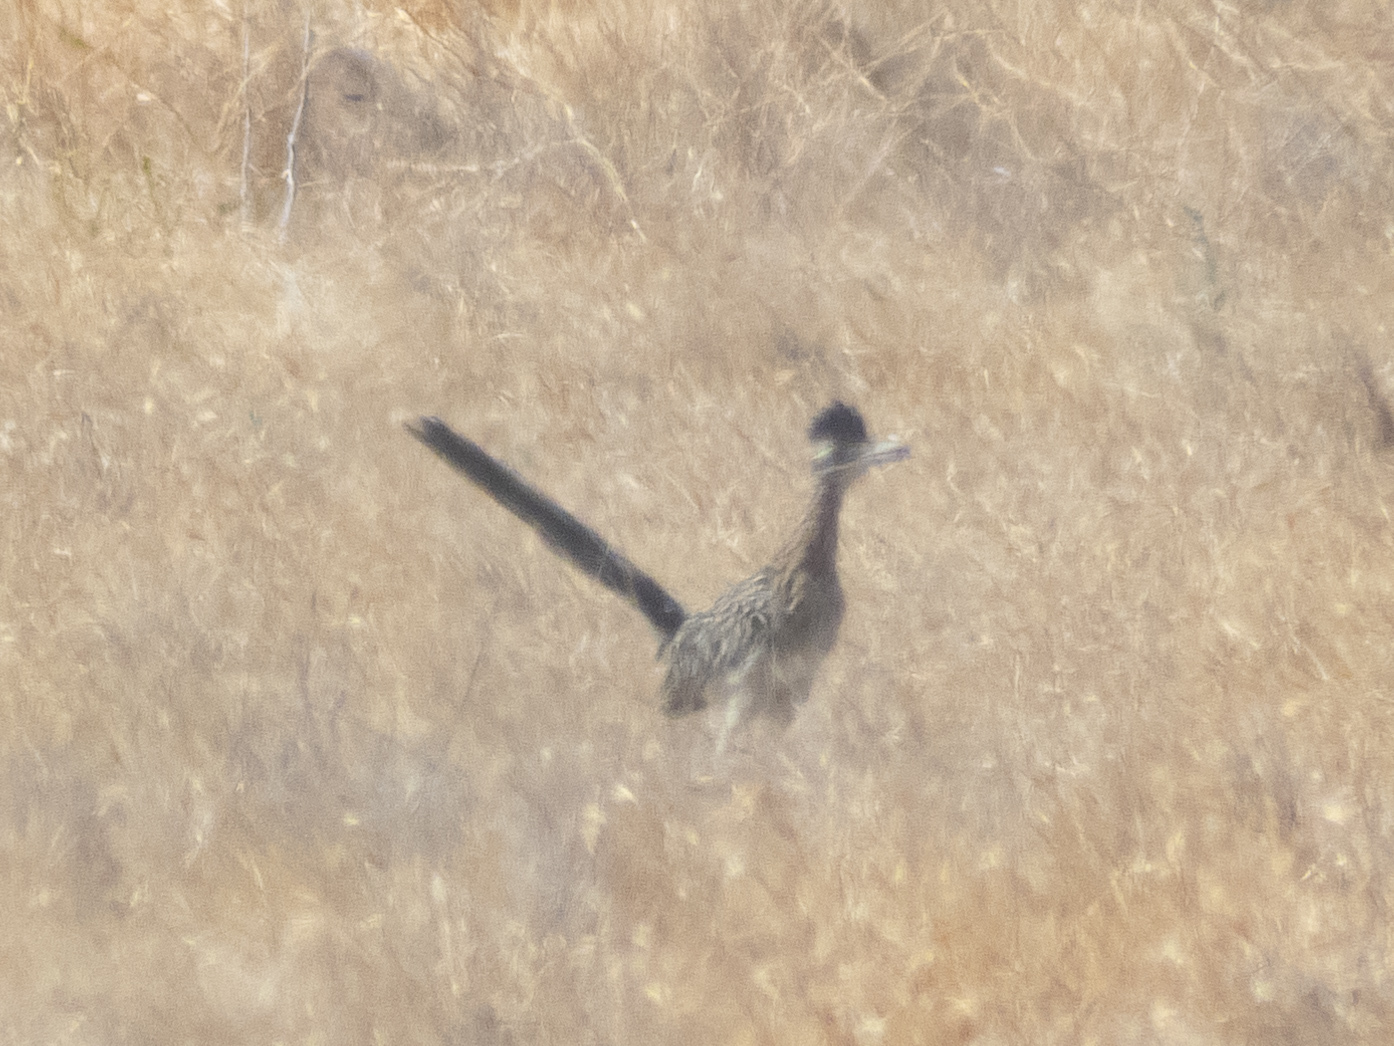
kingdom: Animalia
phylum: Chordata
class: Aves
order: Cuculiformes
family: Cuculidae
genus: Geococcyx
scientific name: Geococcyx californianus
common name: Greater roadrunner
